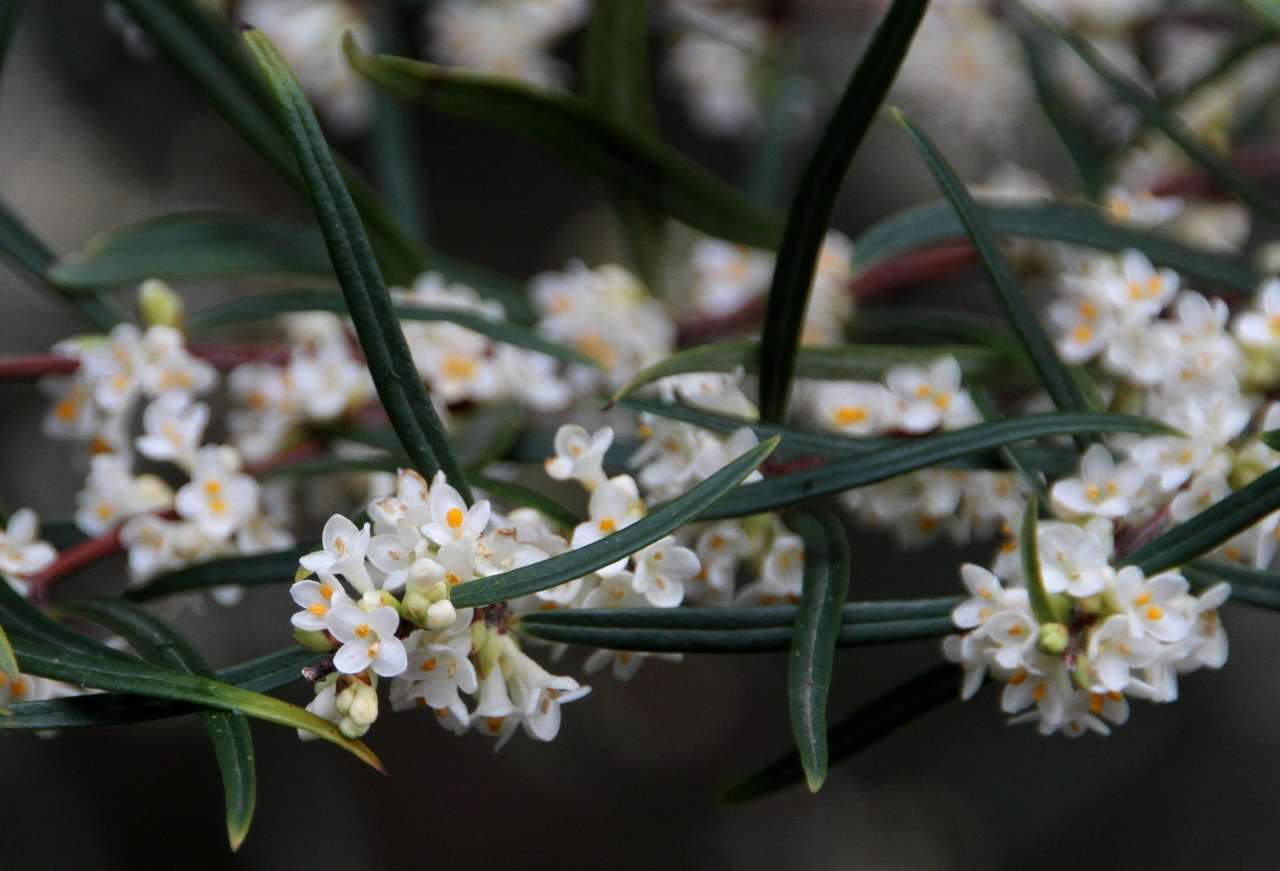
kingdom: Plantae
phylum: Tracheophyta
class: Magnoliopsida
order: Malvales
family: Thymelaeaceae
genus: Pimelea
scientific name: Pimelea axiflora
